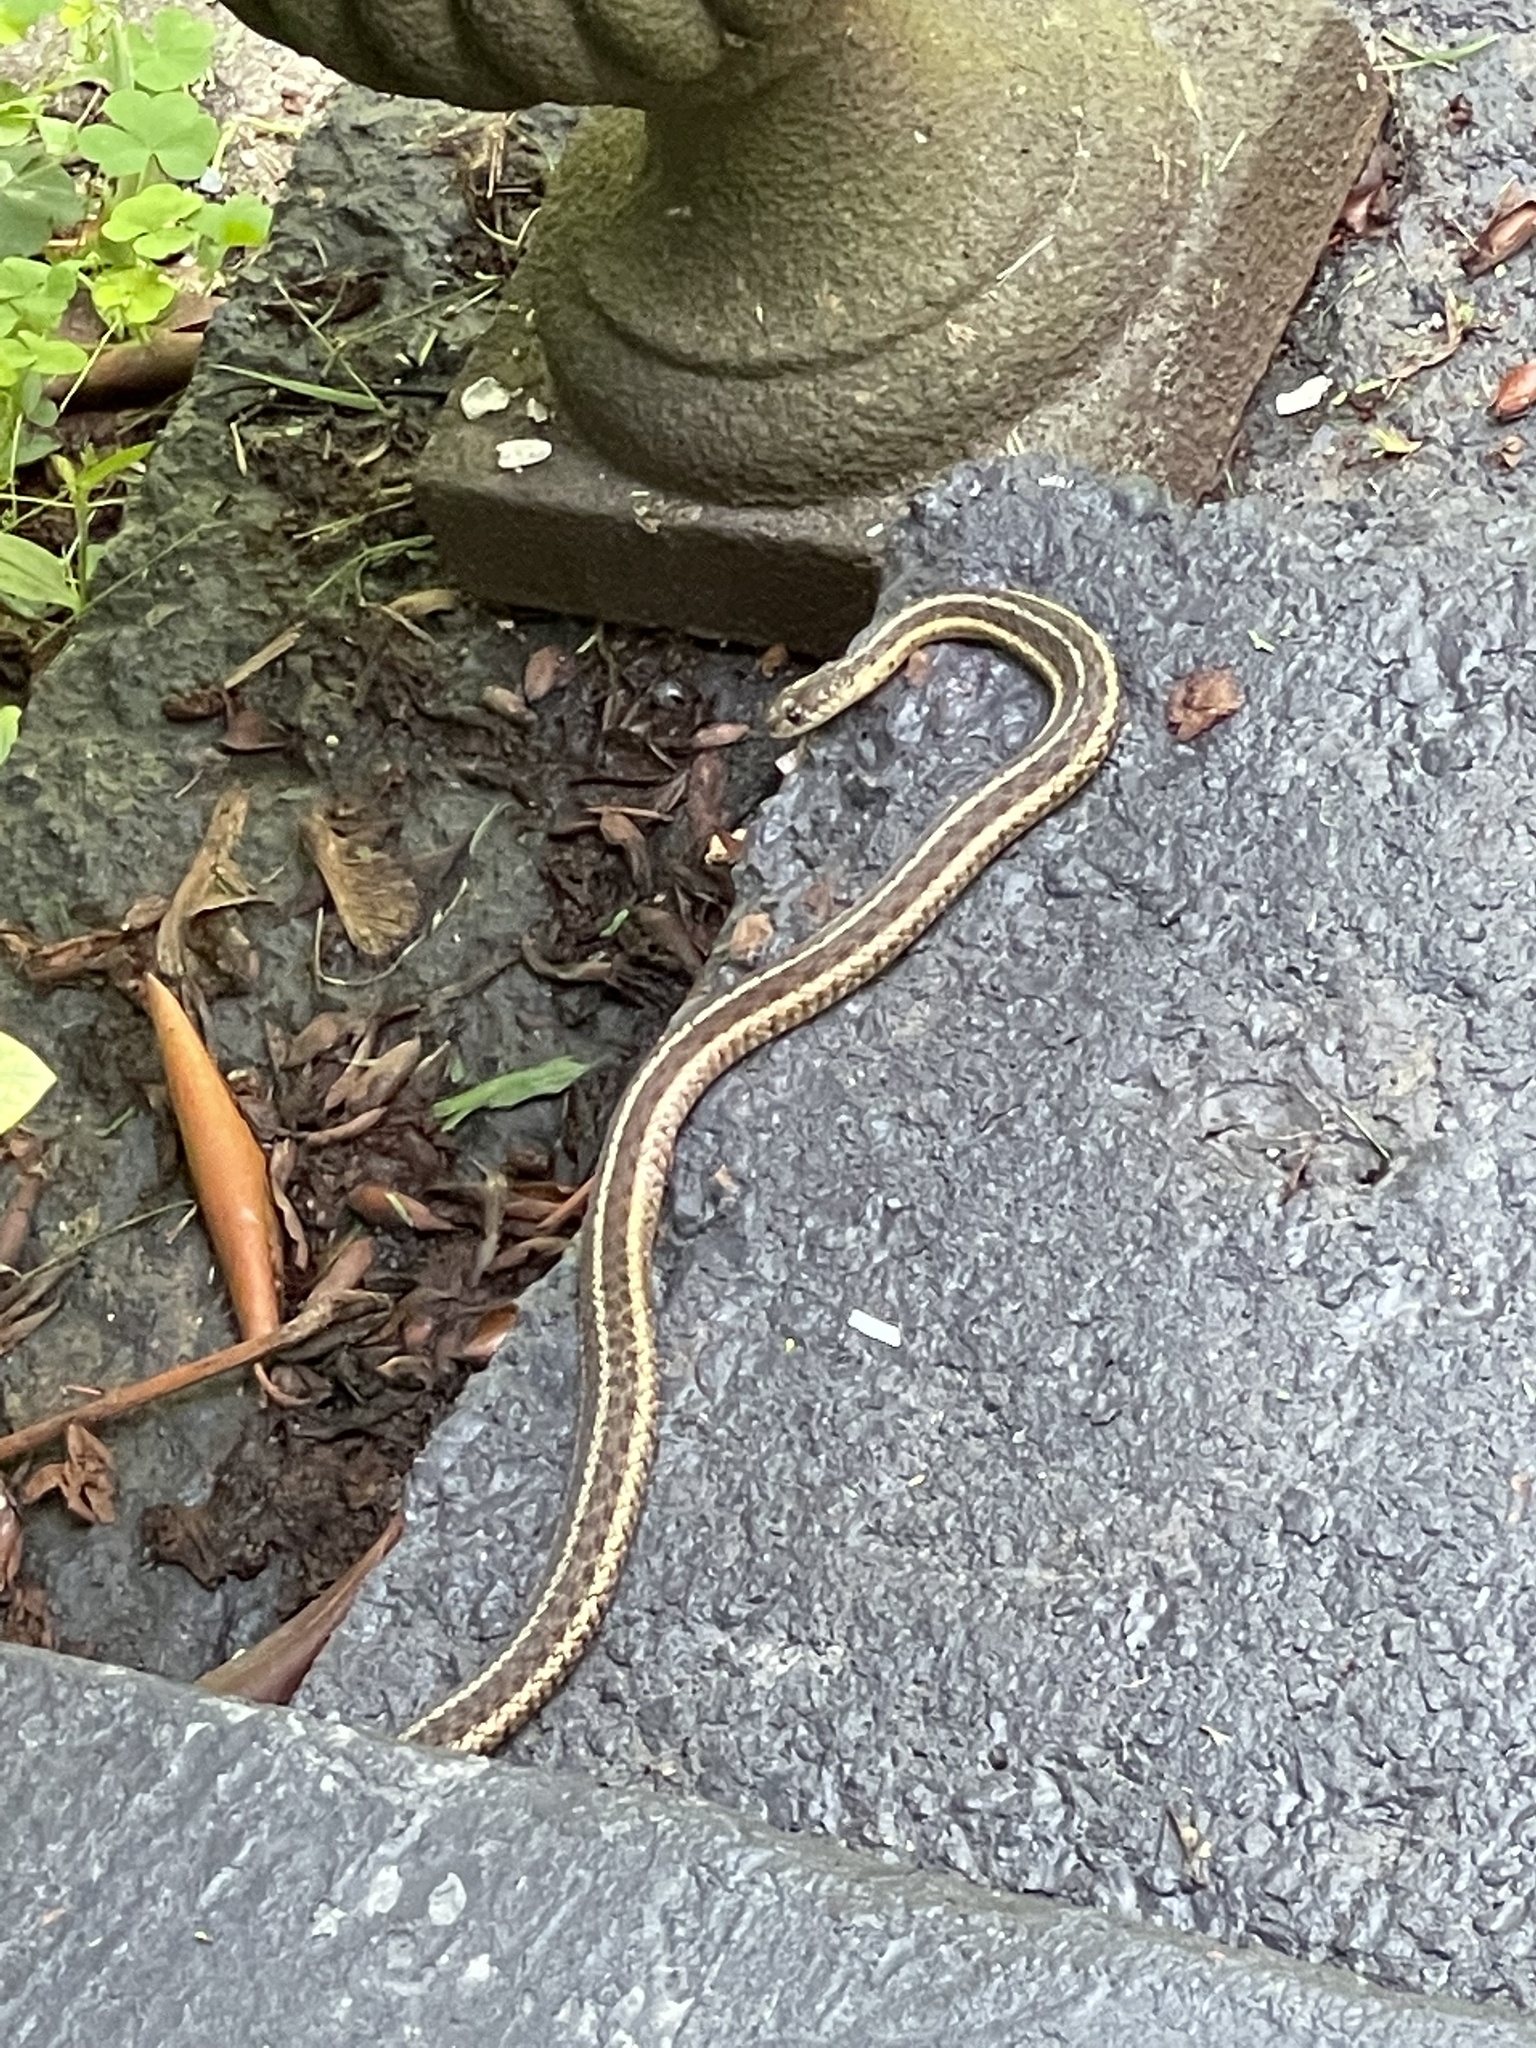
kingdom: Animalia
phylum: Chordata
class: Squamata
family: Colubridae
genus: Thamnophis
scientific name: Thamnophis sirtalis
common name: Common garter snake
